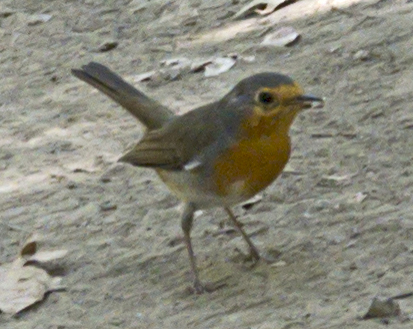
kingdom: Animalia
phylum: Chordata
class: Aves
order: Passeriformes
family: Muscicapidae
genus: Erithacus
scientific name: Erithacus rubecula
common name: European robin
